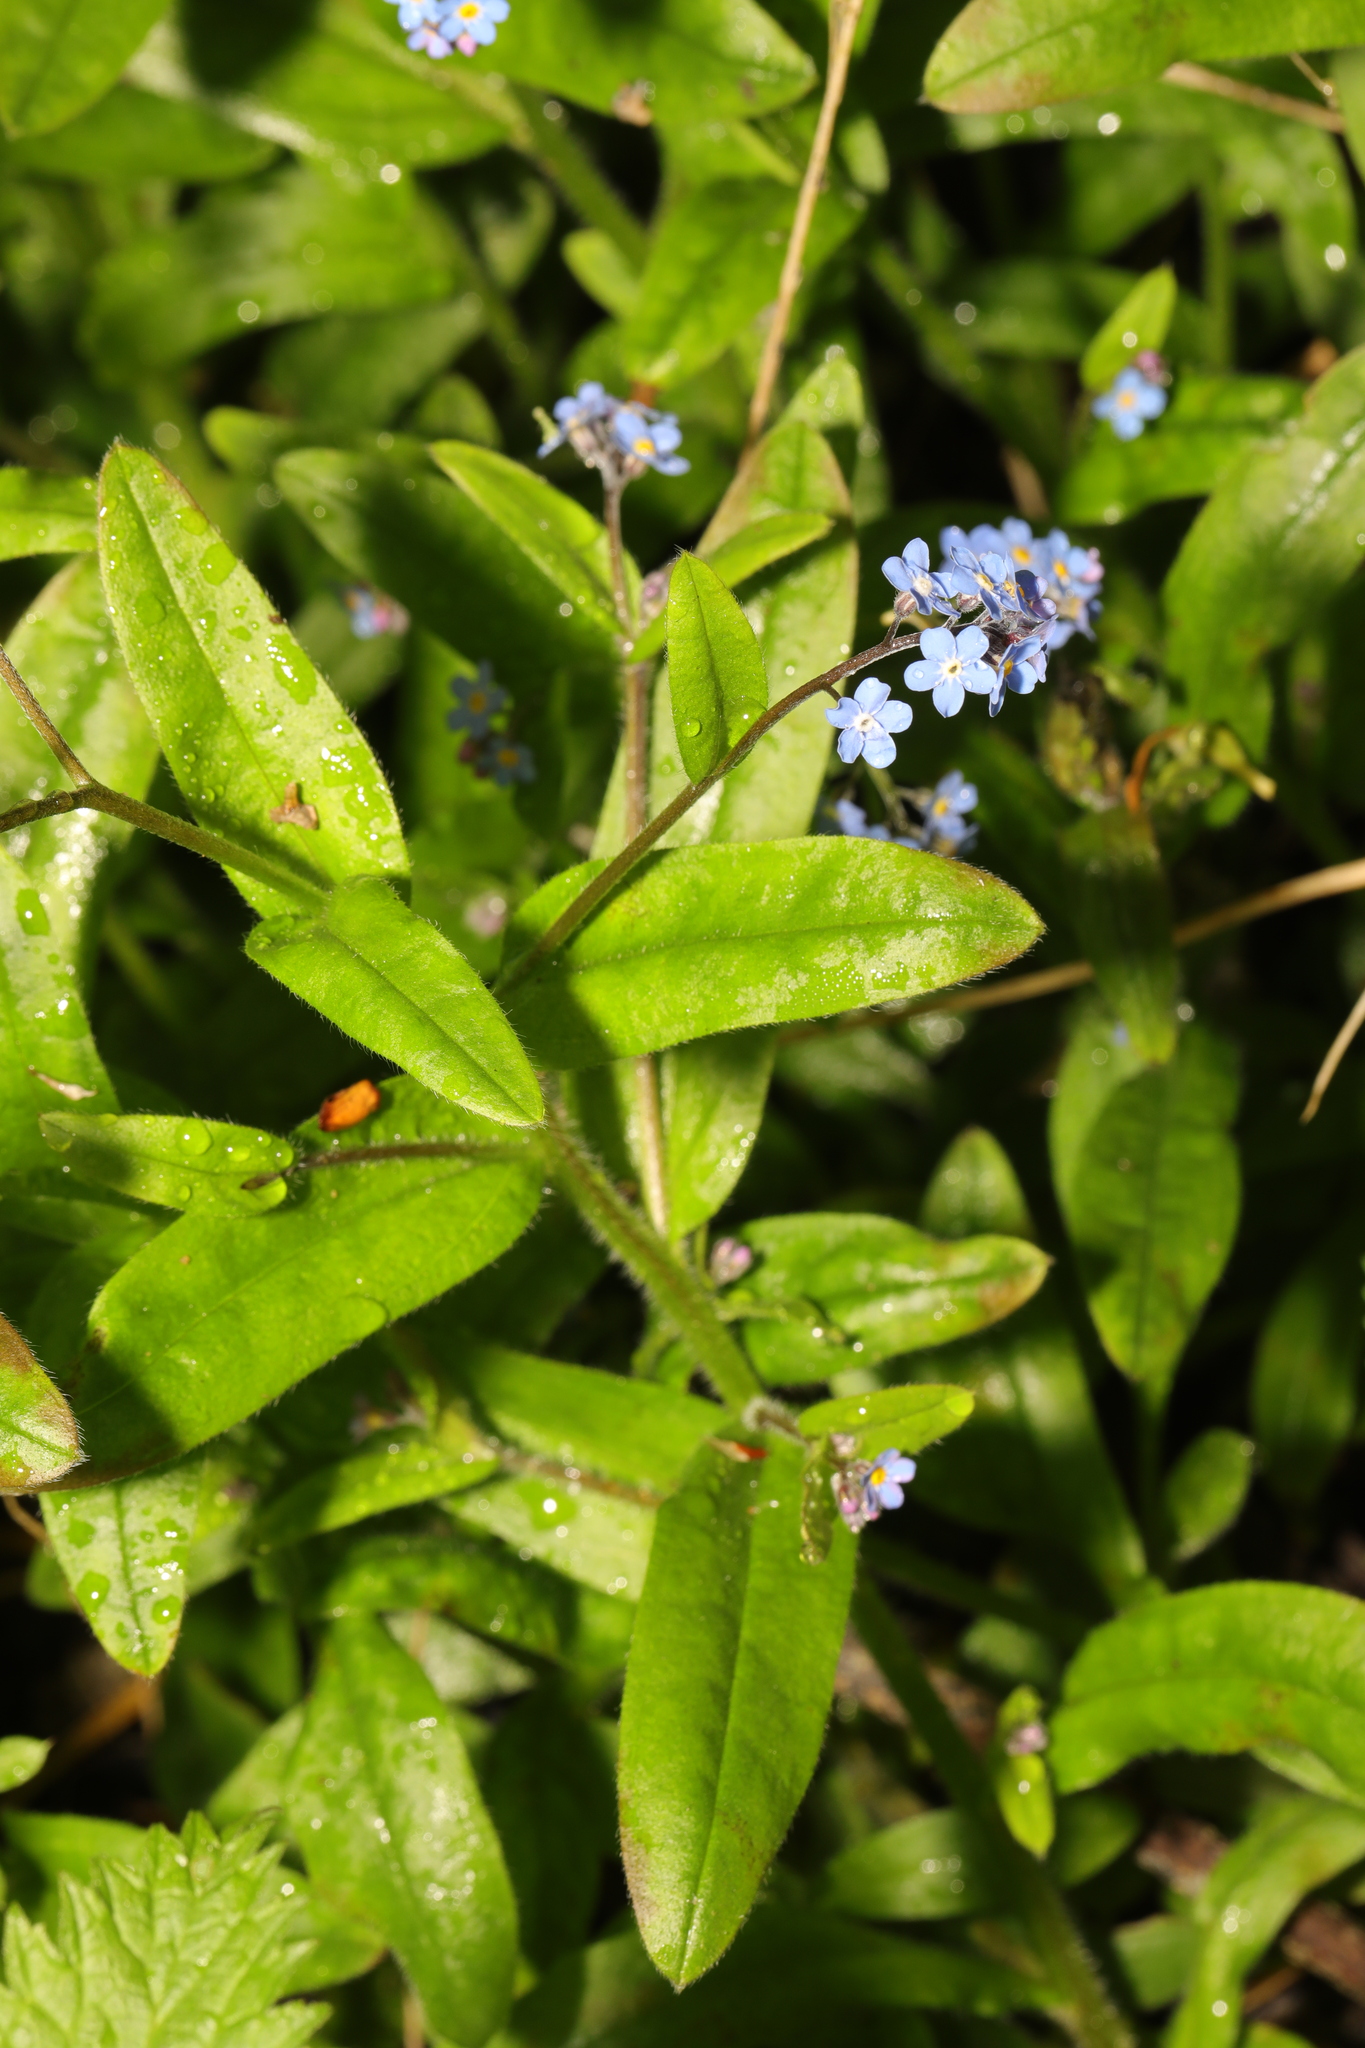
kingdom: Plantae
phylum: Tracheophyta
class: Magnoliopsida
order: Boraginales
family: Boraginaceae
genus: Myosotis
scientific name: Myosotis sylvatica
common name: Wood forget-me-not
